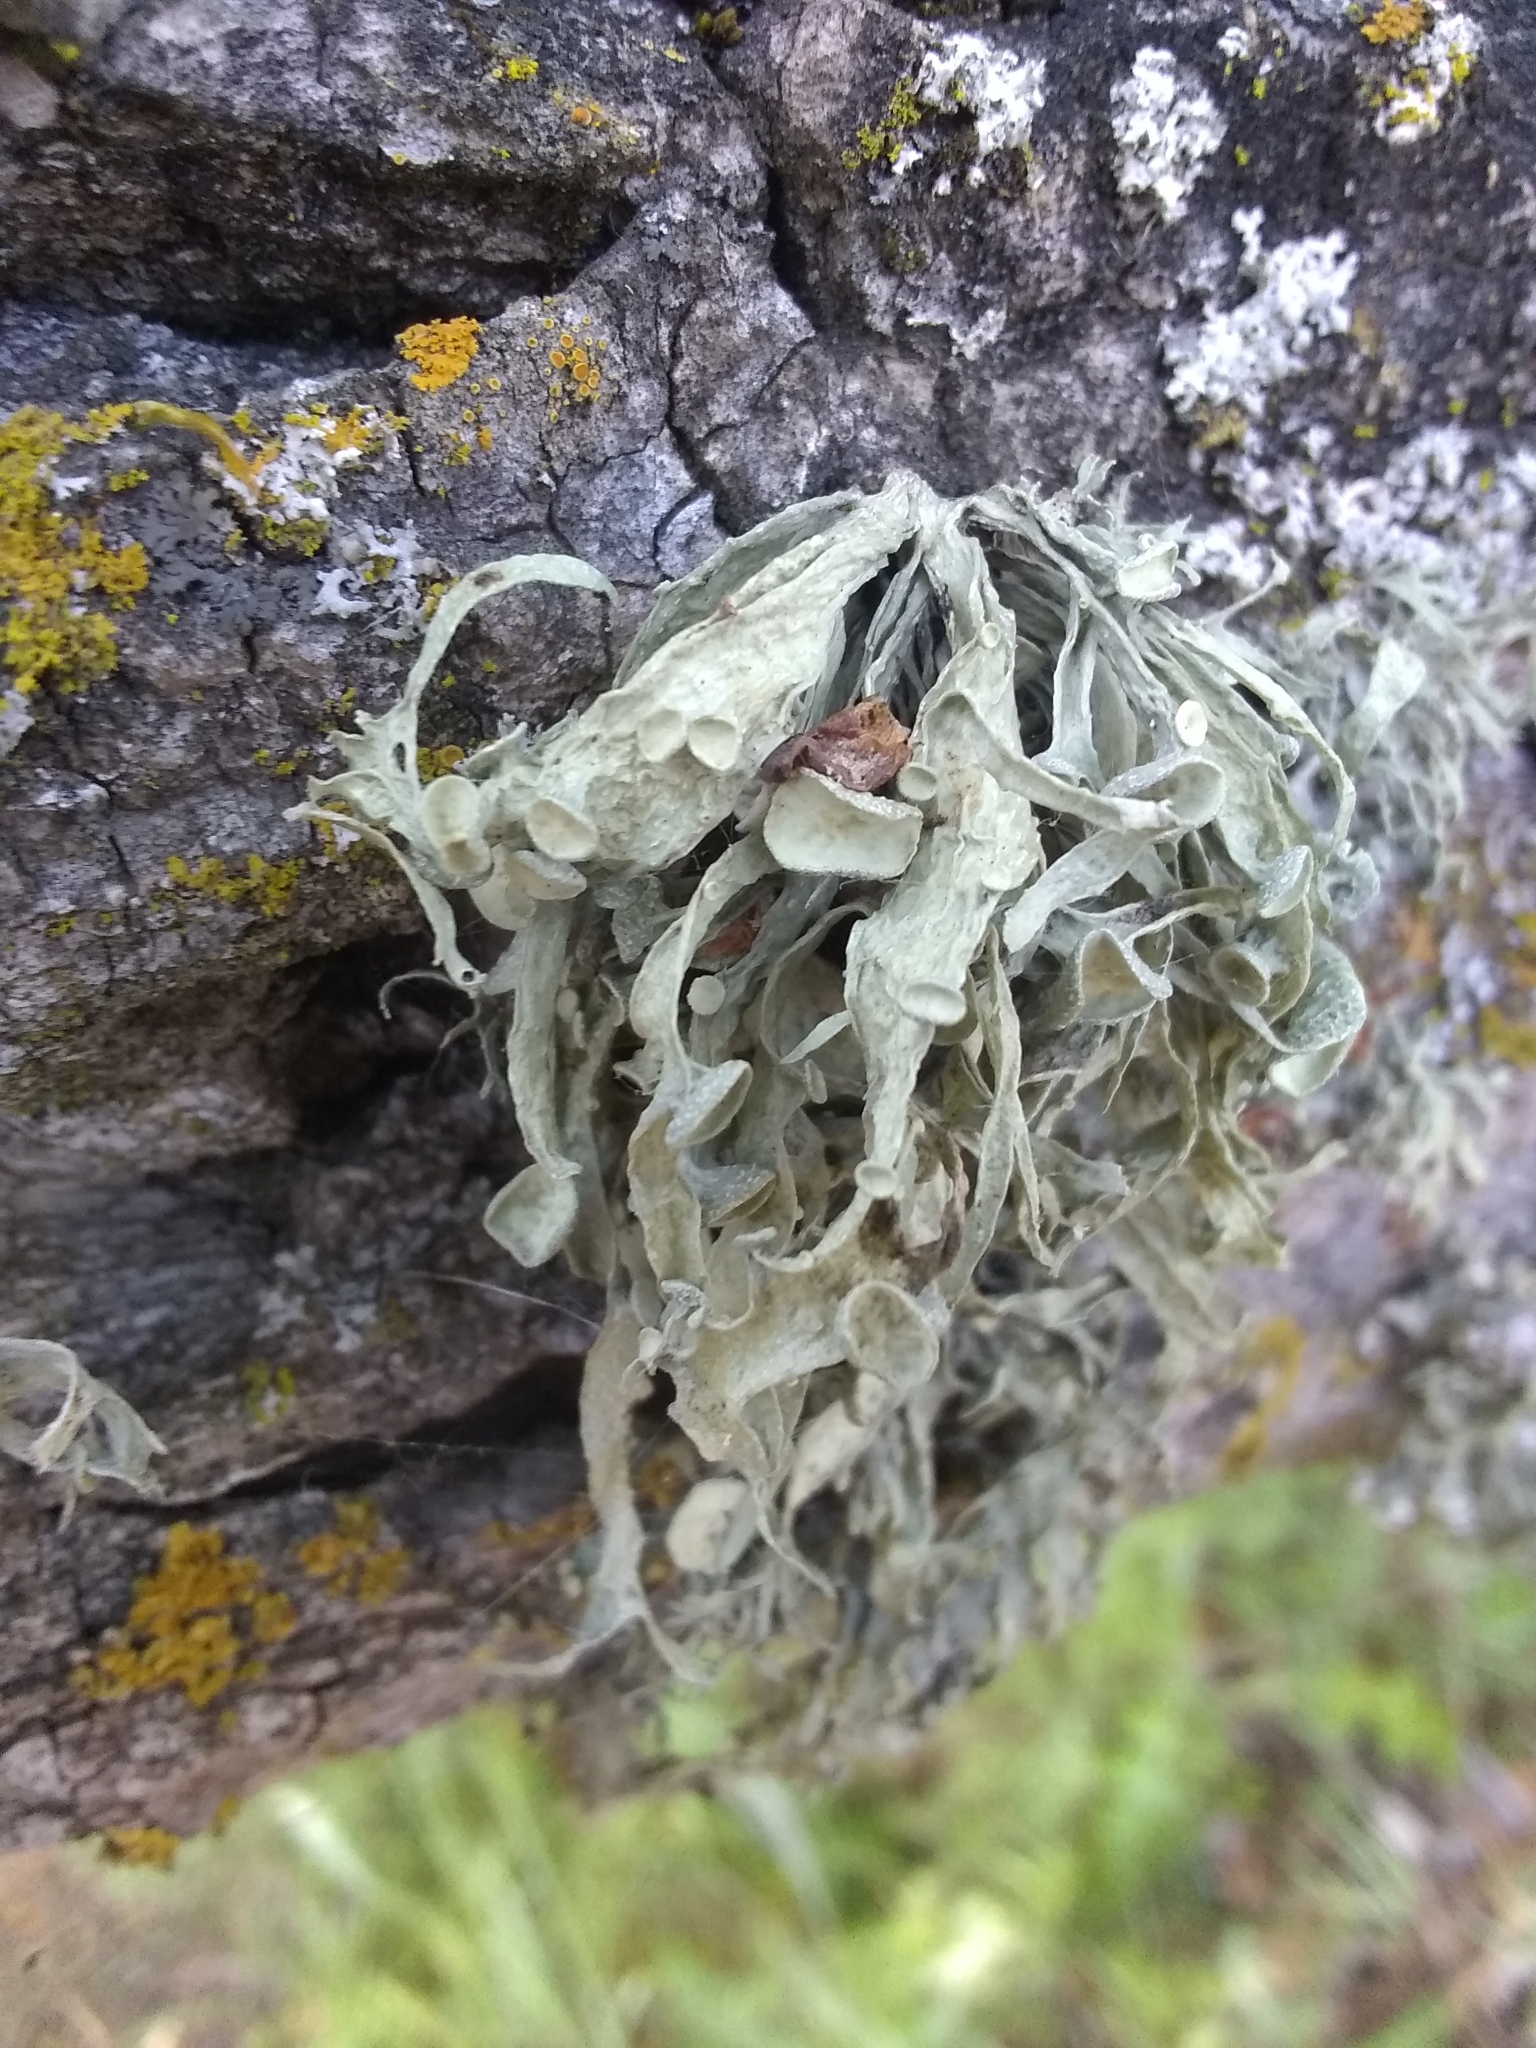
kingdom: Fungi
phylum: Ascomycota
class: Lecanoromycetes
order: Lecanorales
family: Ramalinaceae
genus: Ramalina
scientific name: Ramalina leptocarpha
